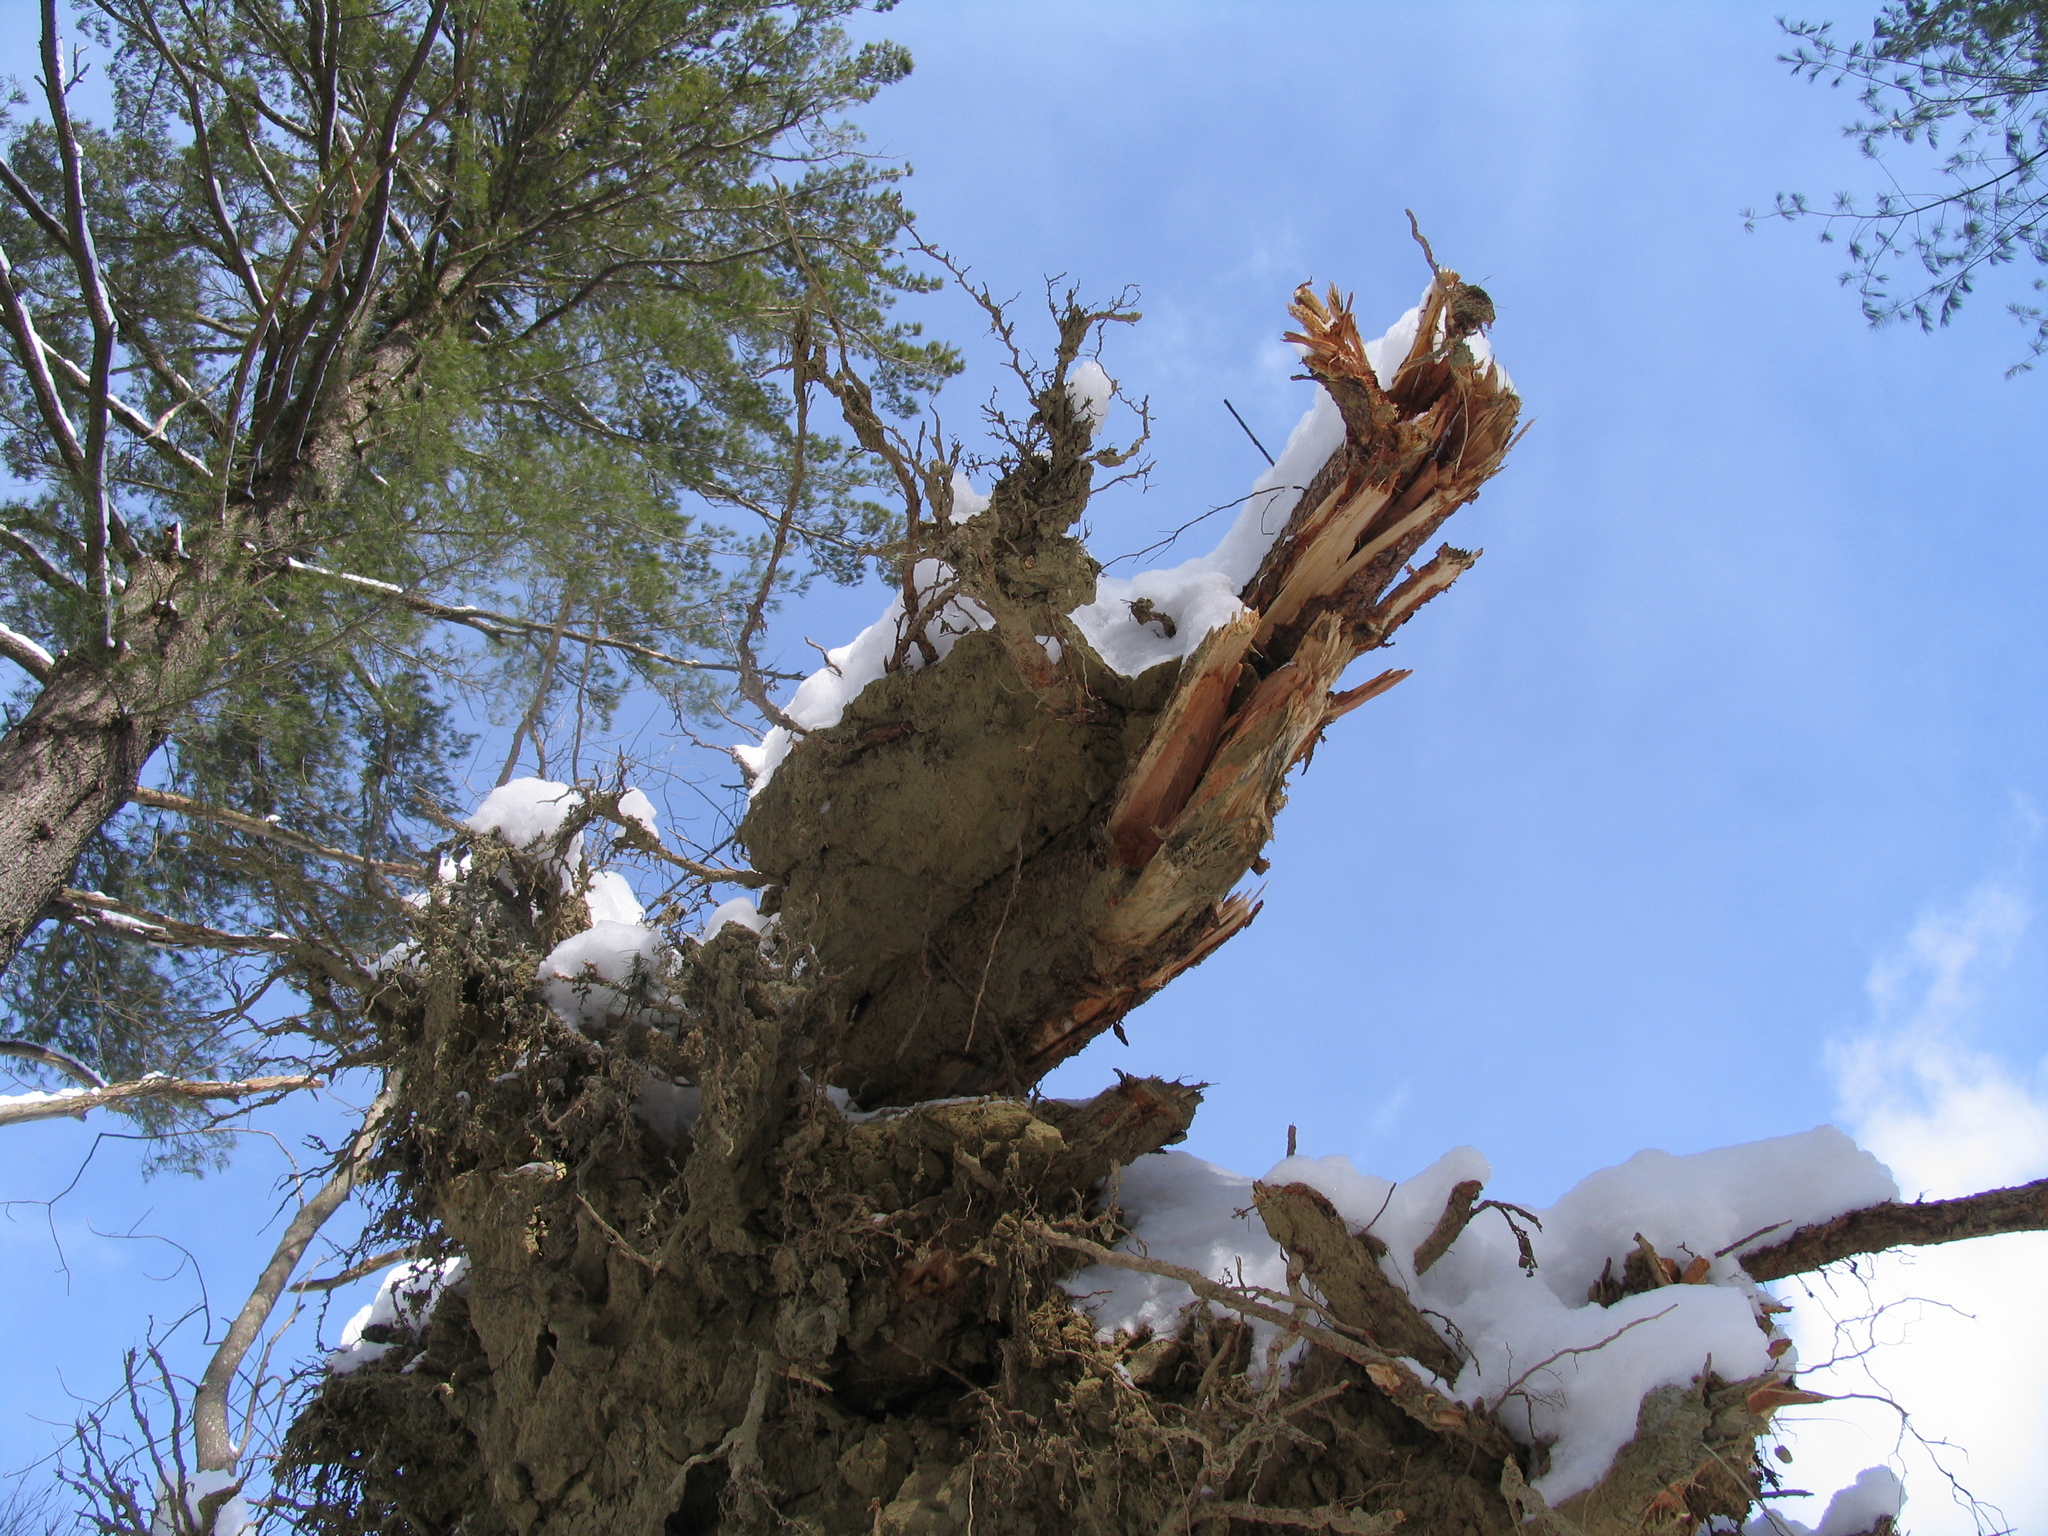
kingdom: Plantae
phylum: Tracheophyta
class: Pinopsida
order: Pinales
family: Pinaceae
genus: Pinus
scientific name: Pinus strobus
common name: Weymouth pine
